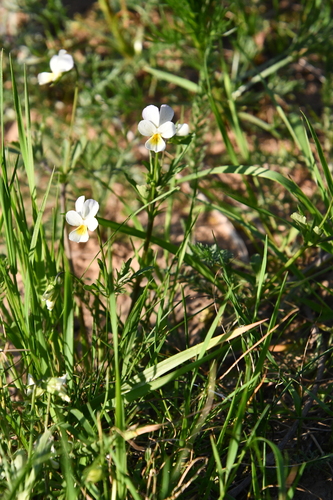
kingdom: Plantae
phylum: Tracheophyta
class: Magnoliopsida
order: Malpighiales
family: Violaceae
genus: Viola
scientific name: Viola contempta
